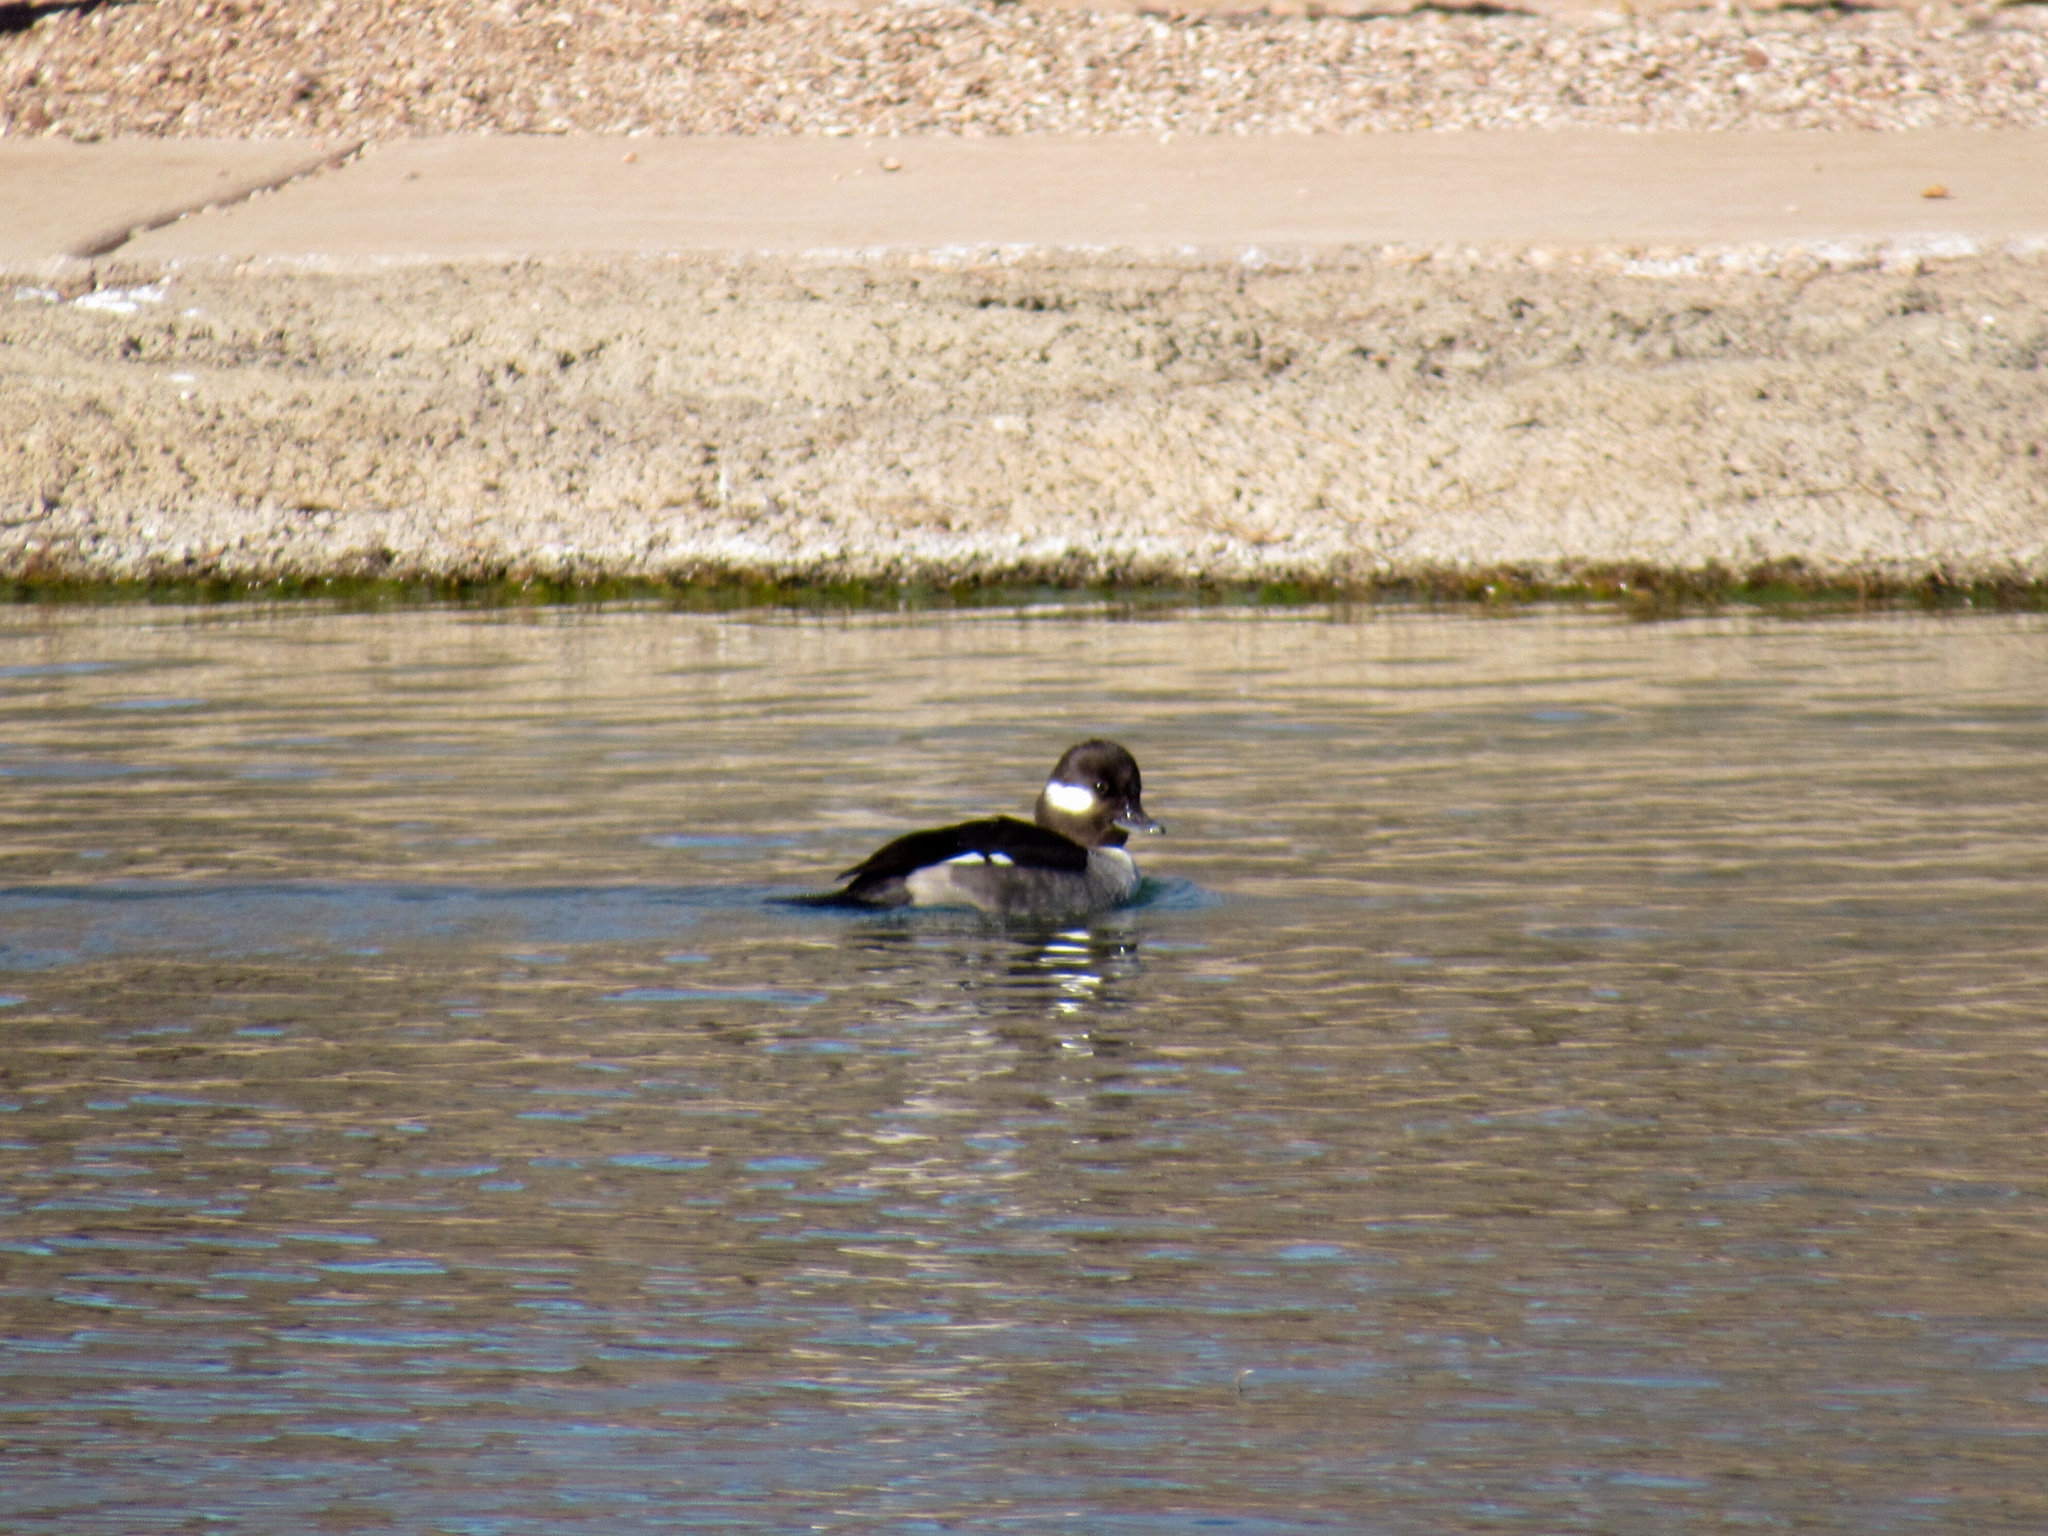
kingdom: Animalia
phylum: Chordata
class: Aves
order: Anseriformes
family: Anatidae
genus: Bucephala
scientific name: Bucephala albeola
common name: Bufflehead
